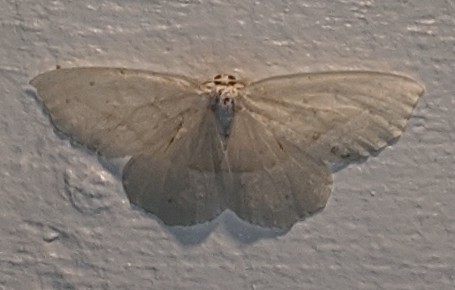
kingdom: Animalia
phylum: Arthropoda
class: Insecta
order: Lepidoptera
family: Geometridae
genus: Campaea
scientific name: Campaea perlata
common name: Fringed looper
